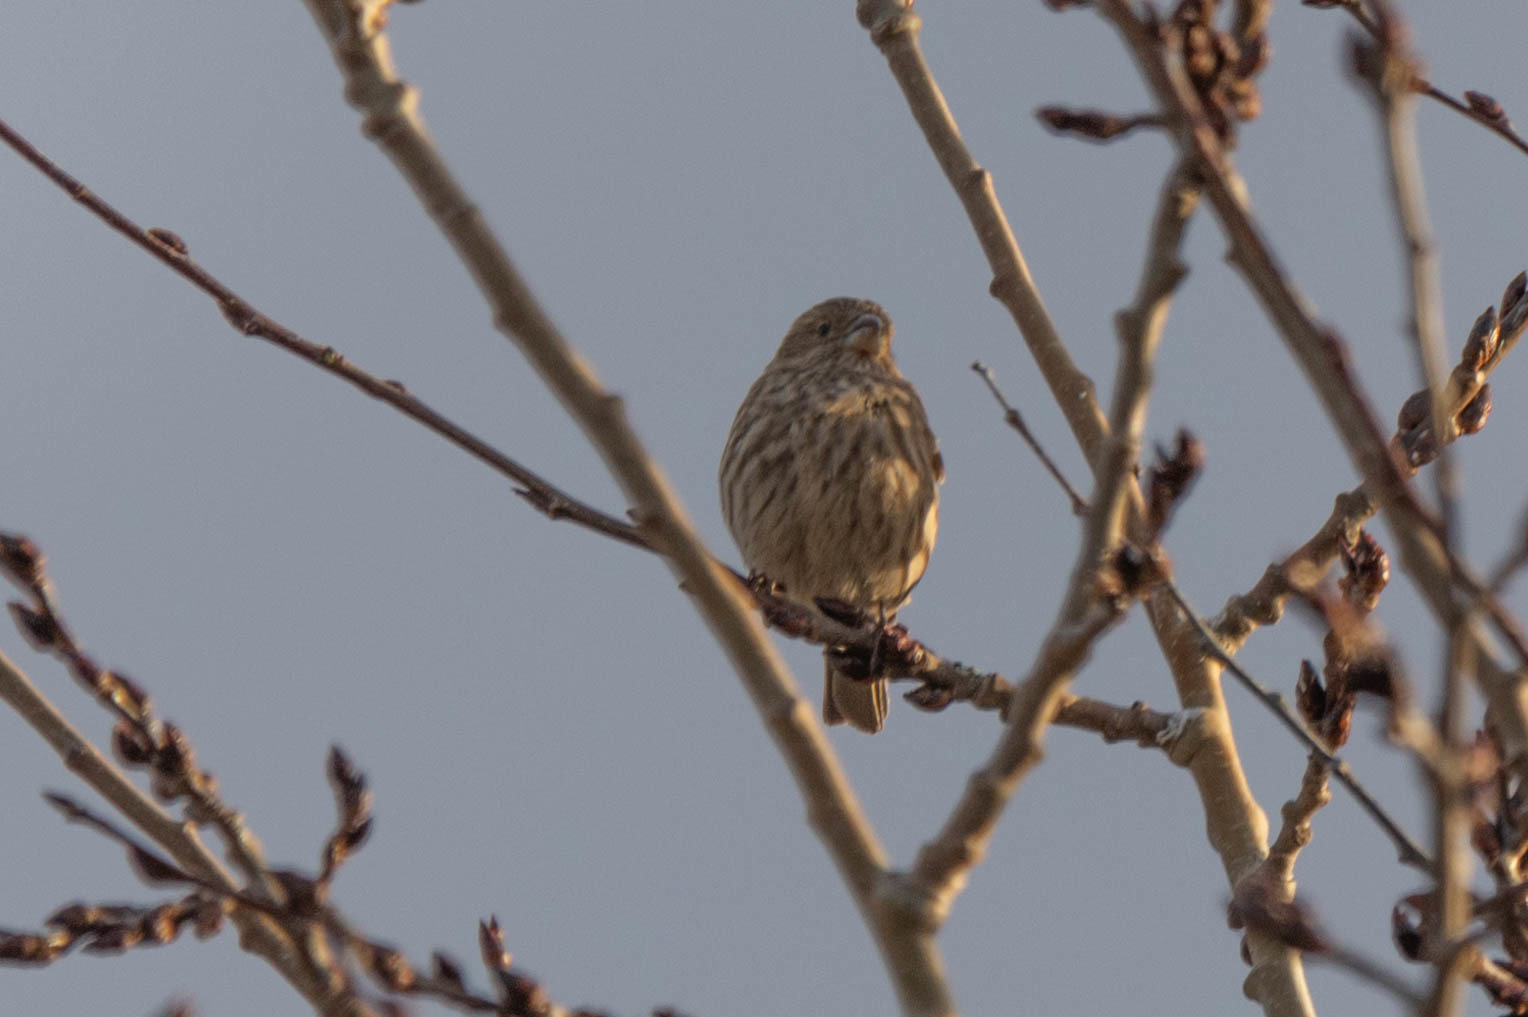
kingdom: Animalia
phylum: Chordata
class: Aves
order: Passeriformes
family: Fringillidae
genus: Haemorhous
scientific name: Haemorhous mexicanus
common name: House finch
